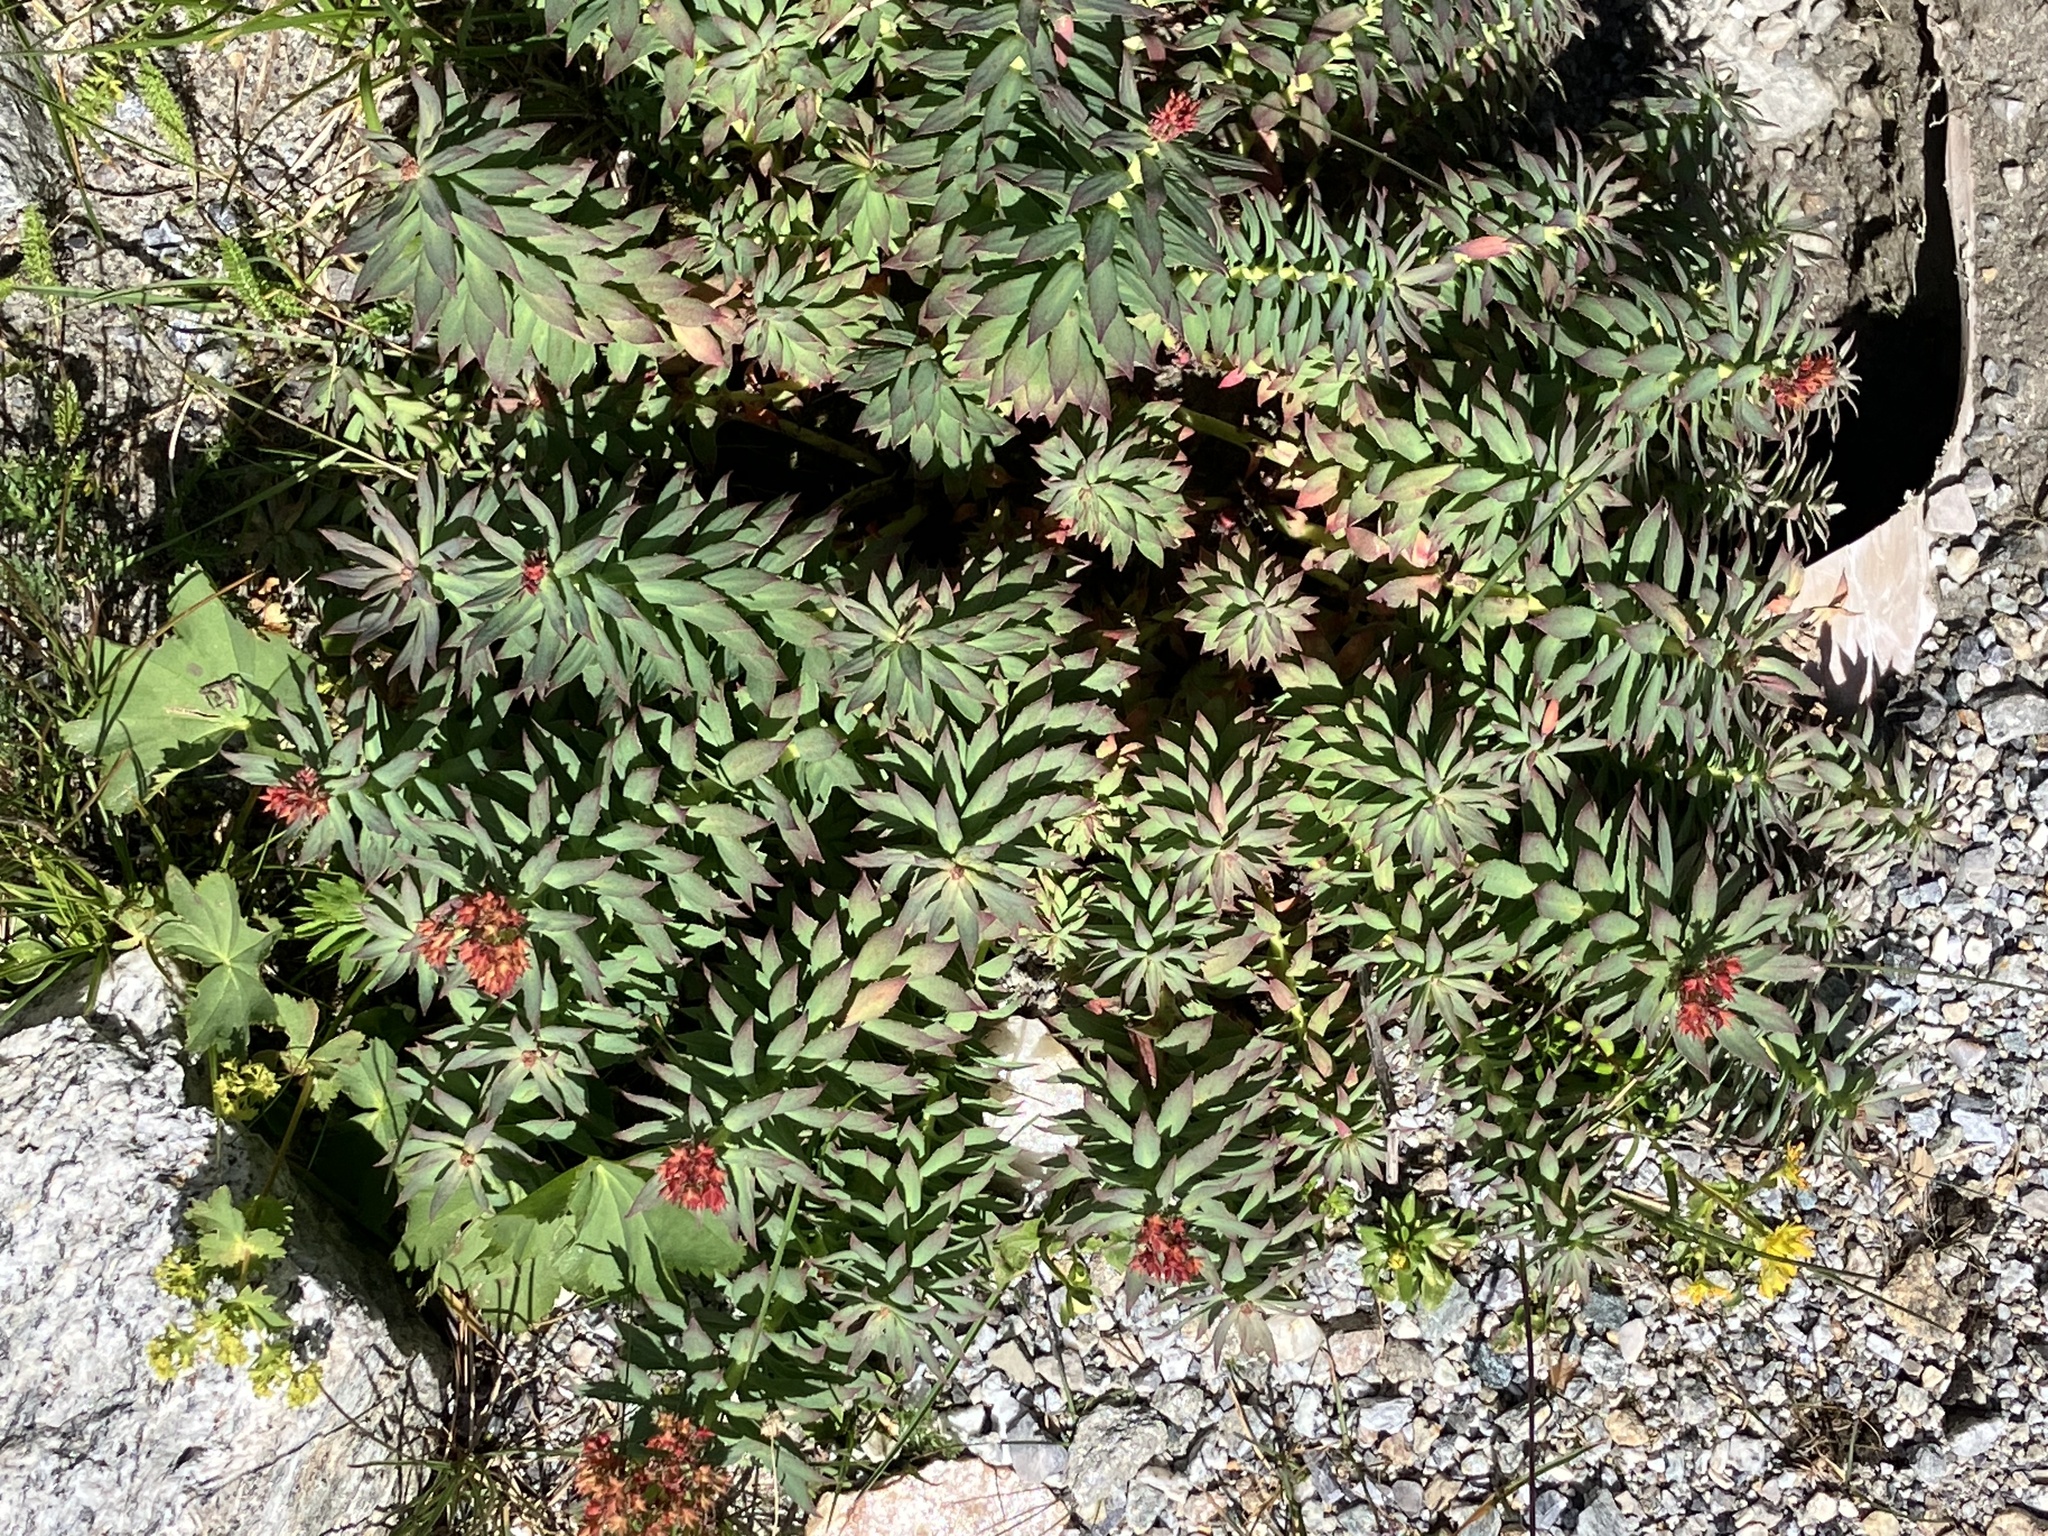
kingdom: Plantae
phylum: Tracheophyta
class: Magnoliopsida
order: Saxifragales
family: Crassulaceae
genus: Rhodiola
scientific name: Rhodiola rosea
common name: Roseroot
